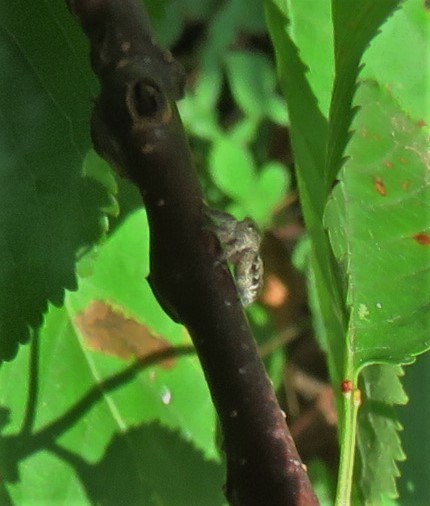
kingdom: Animalia
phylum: Arthropoda
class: Arachnida
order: Araneae
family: Salticidae
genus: Eris
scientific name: Eris militaris
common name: Bronze jumper
